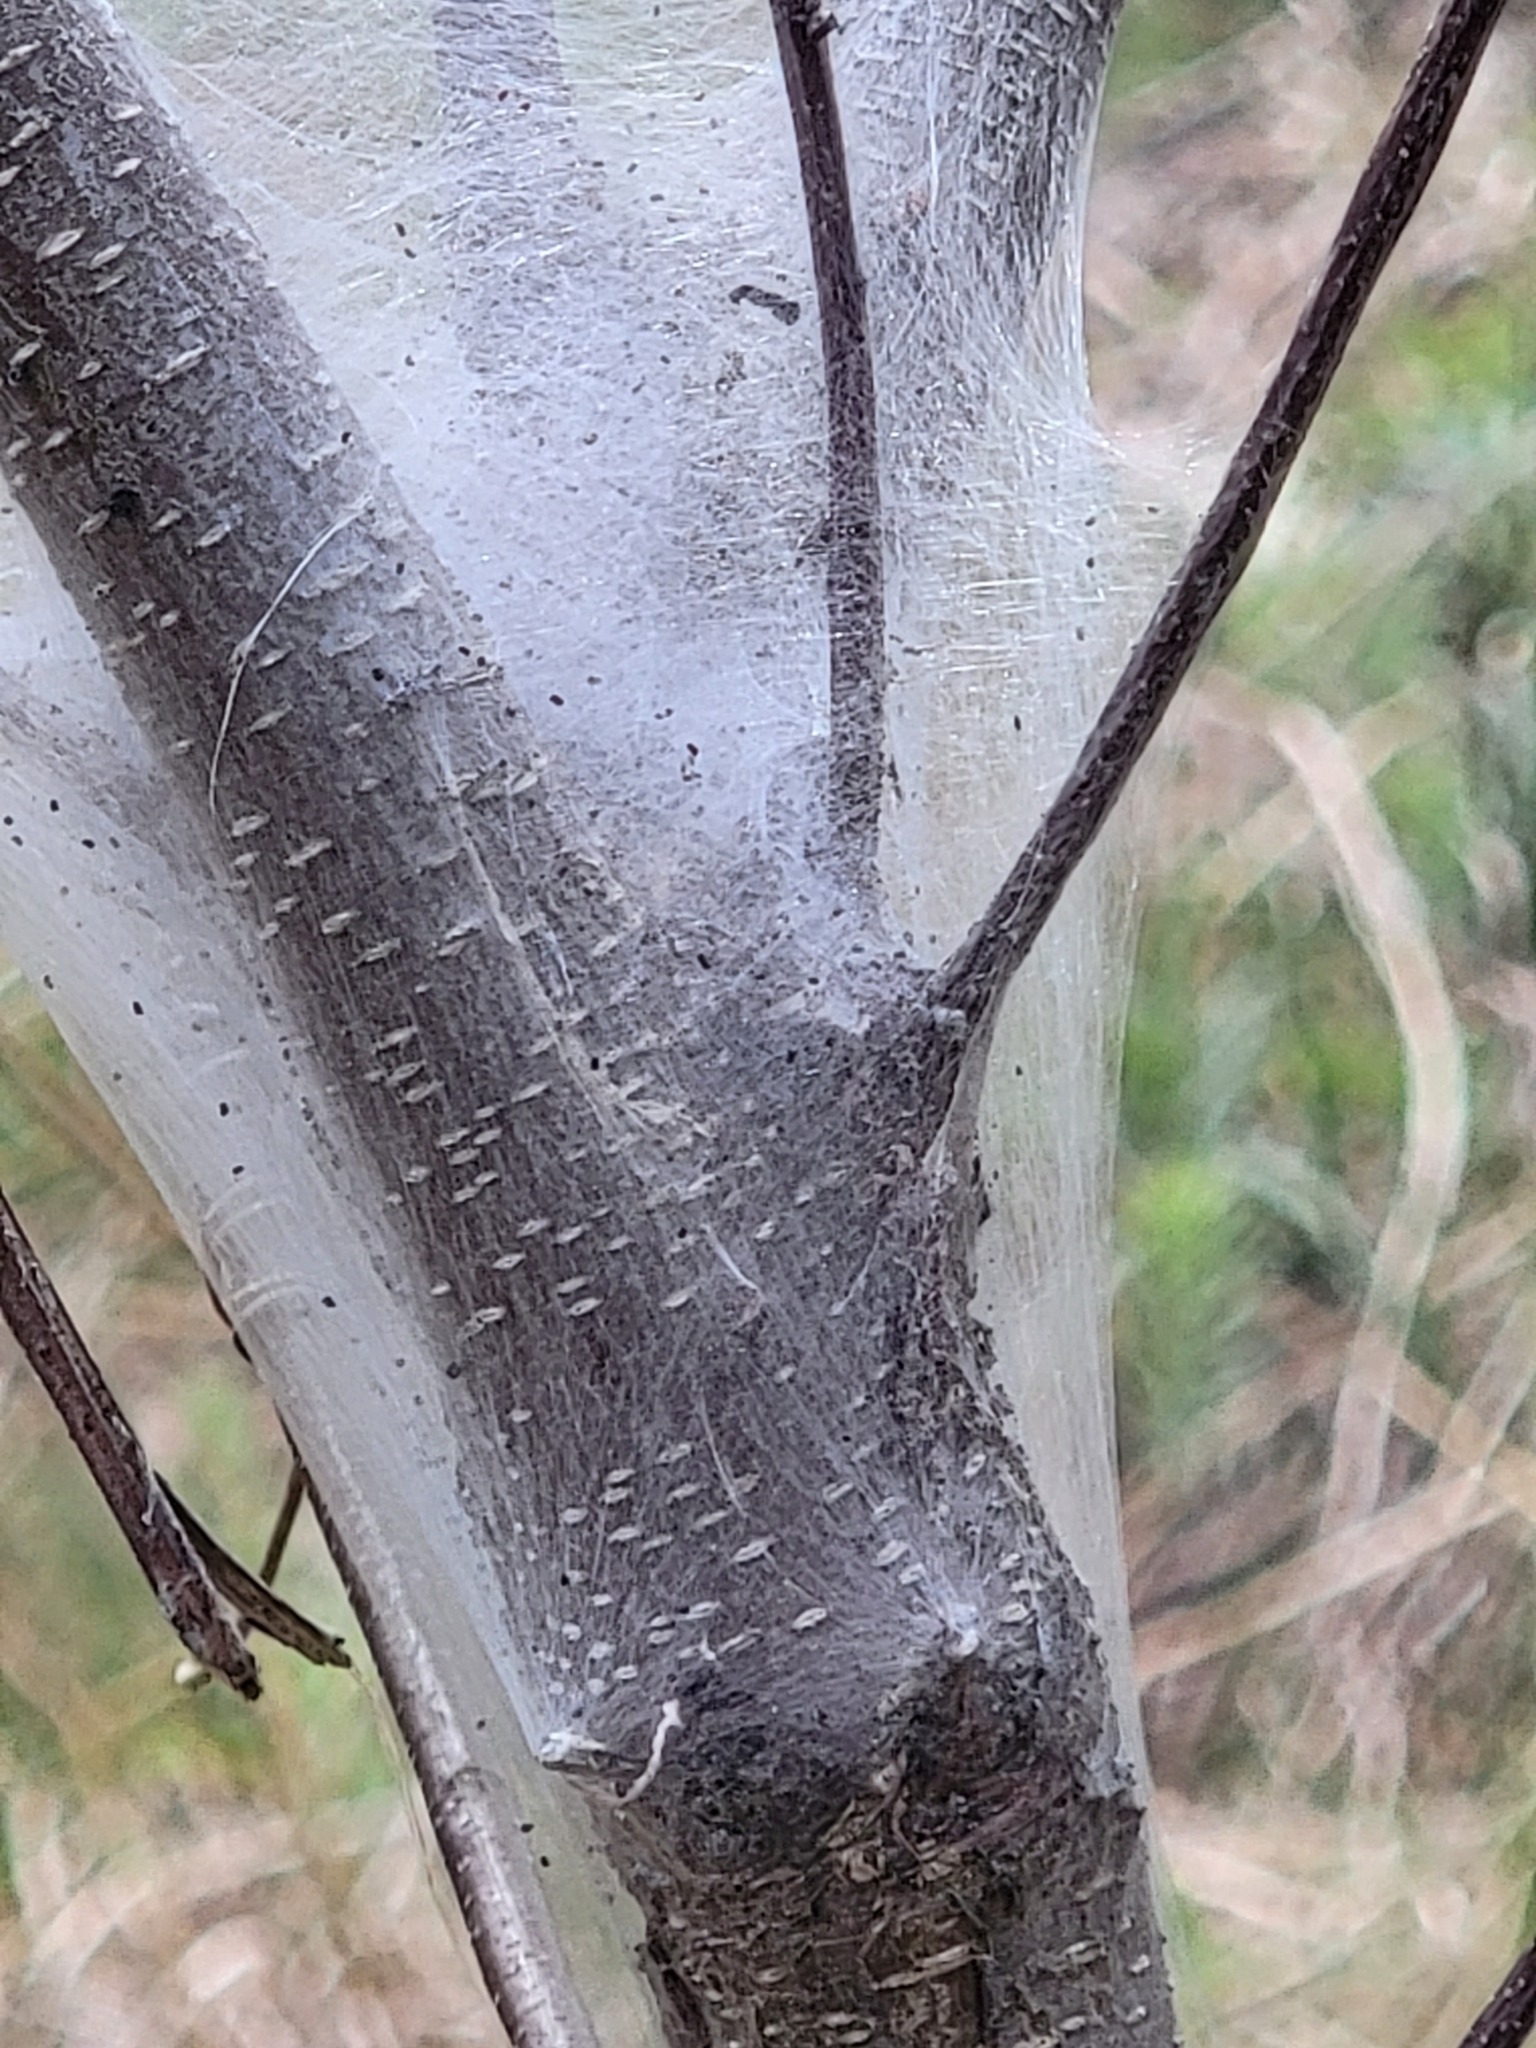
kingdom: Animalia
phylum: Arthropoda
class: Insecta
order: Lepidoptera
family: Lasiocampidae
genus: Malacosoma
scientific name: Malacosoma americana
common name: Eastern tent caterpillar moth
